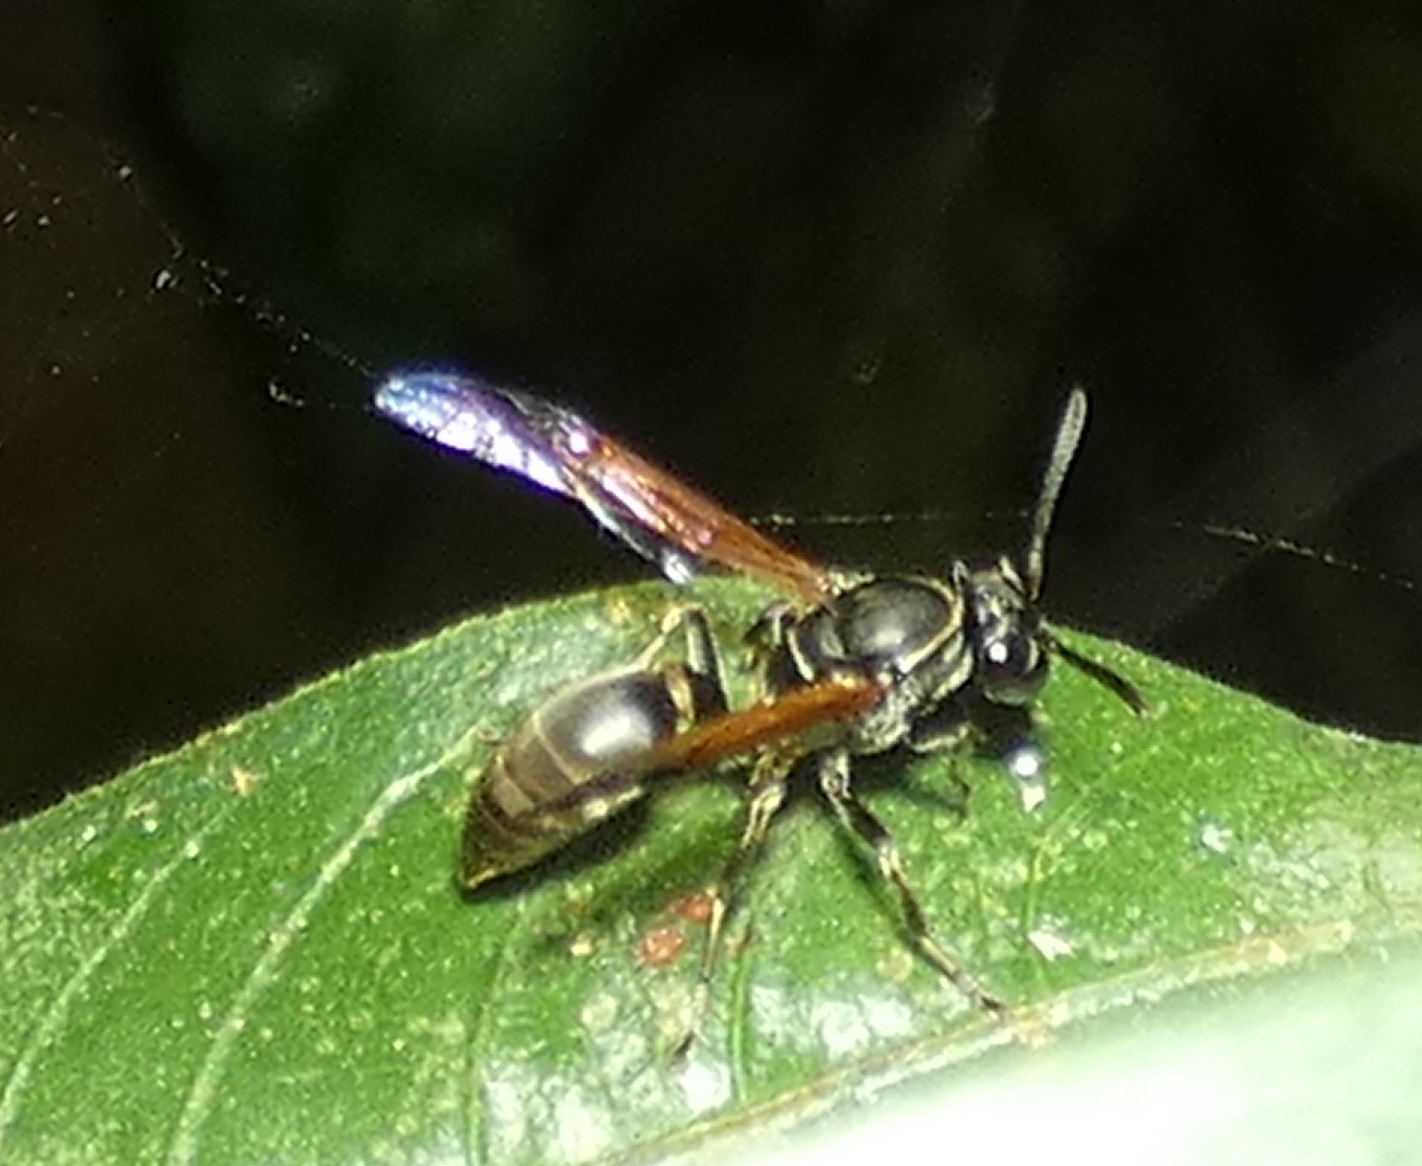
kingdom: Animalia
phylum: Arthropoda
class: Insecta
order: Hymenoptera
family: Eumenidae
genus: Polybia
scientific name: Polybia rejecta
